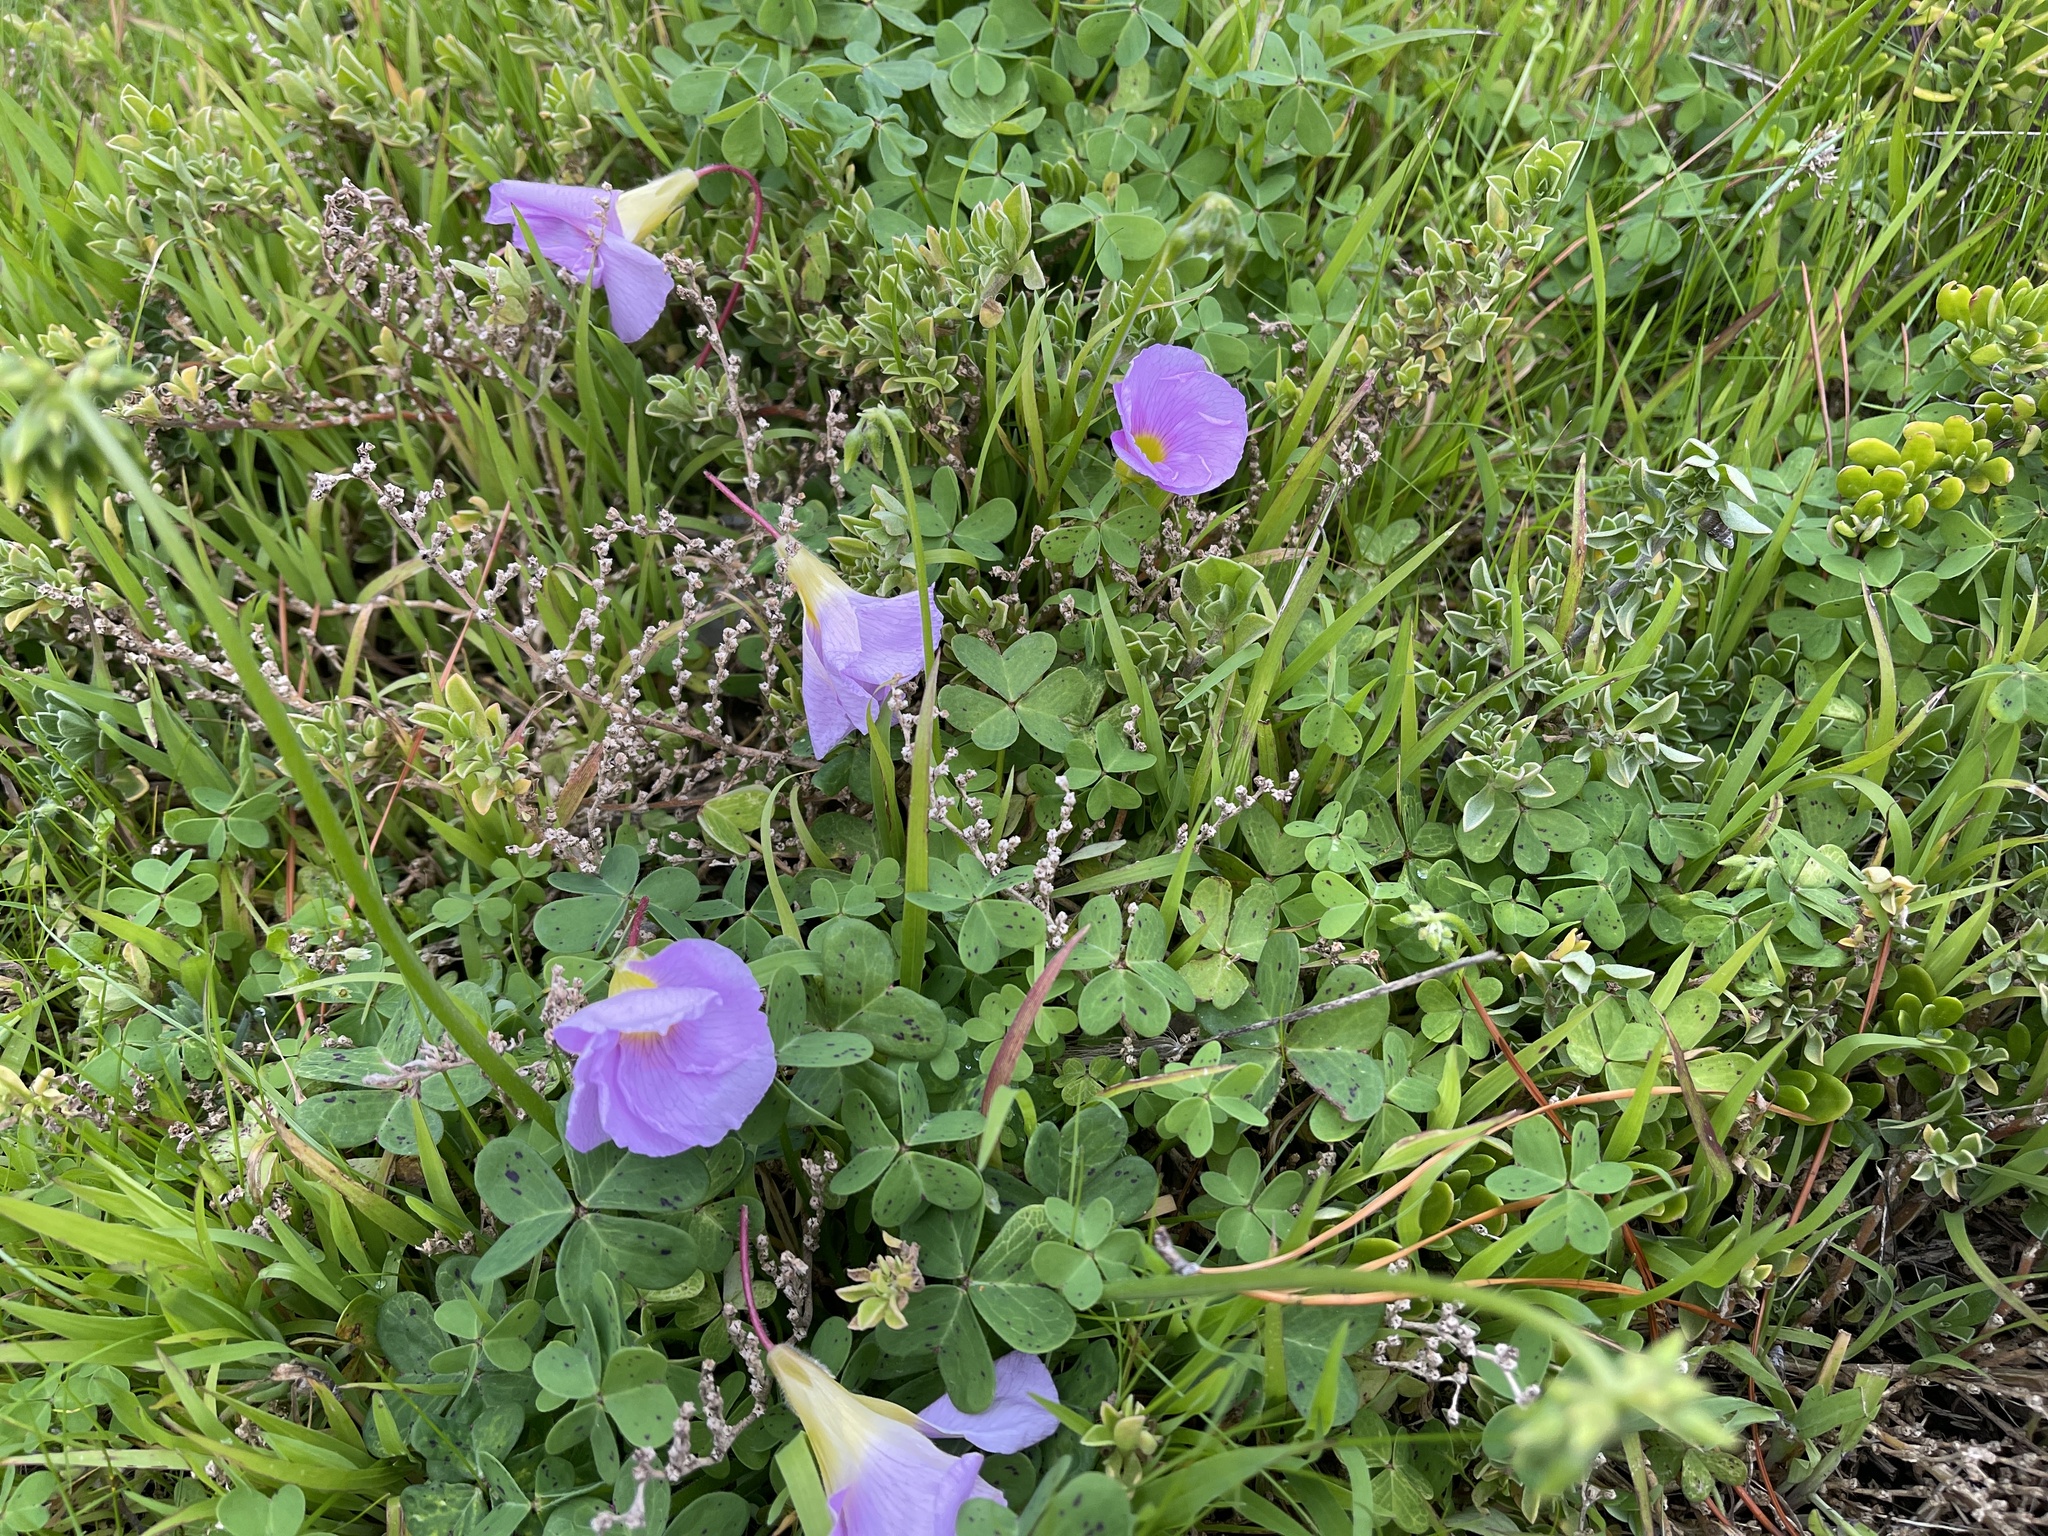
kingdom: Plantae
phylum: Tracheophyta
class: Magnoliopsida
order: Oxalidales
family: Oxalidaceae
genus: Oxalis
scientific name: Oxalis purpurea
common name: Purple woodsorrel
